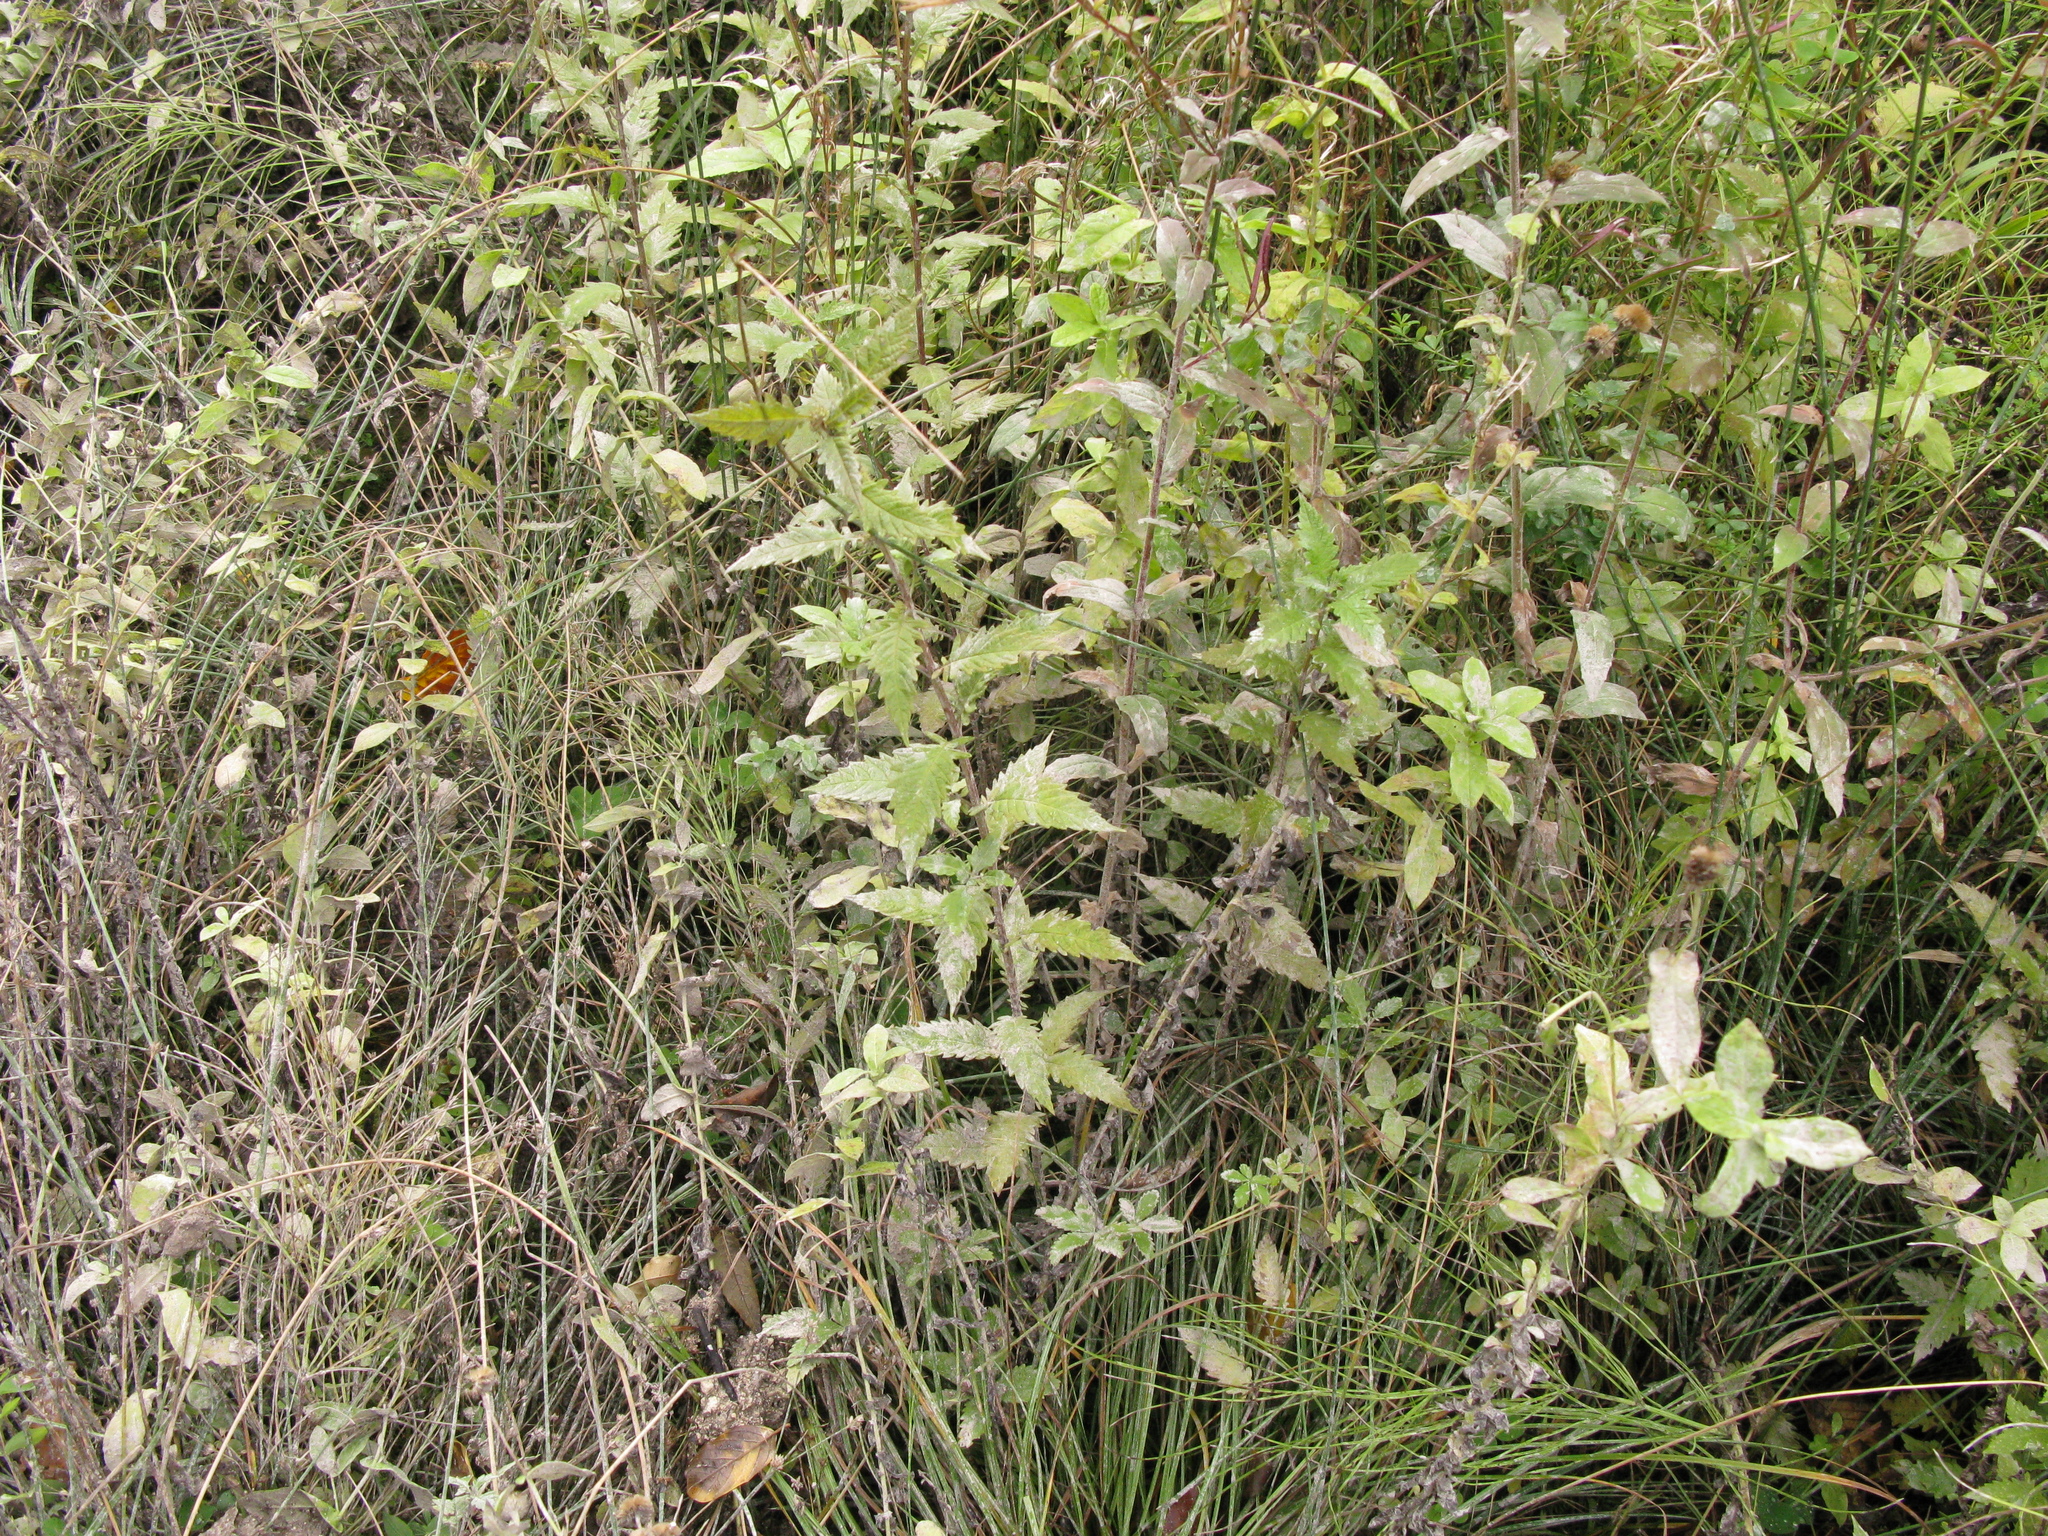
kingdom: Plantae
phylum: Tracheophyta
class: Magnoliopsida
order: Lamiales
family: Lamiaceae
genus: Lycopus
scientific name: Lycopus europaeus
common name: European bugleweed
